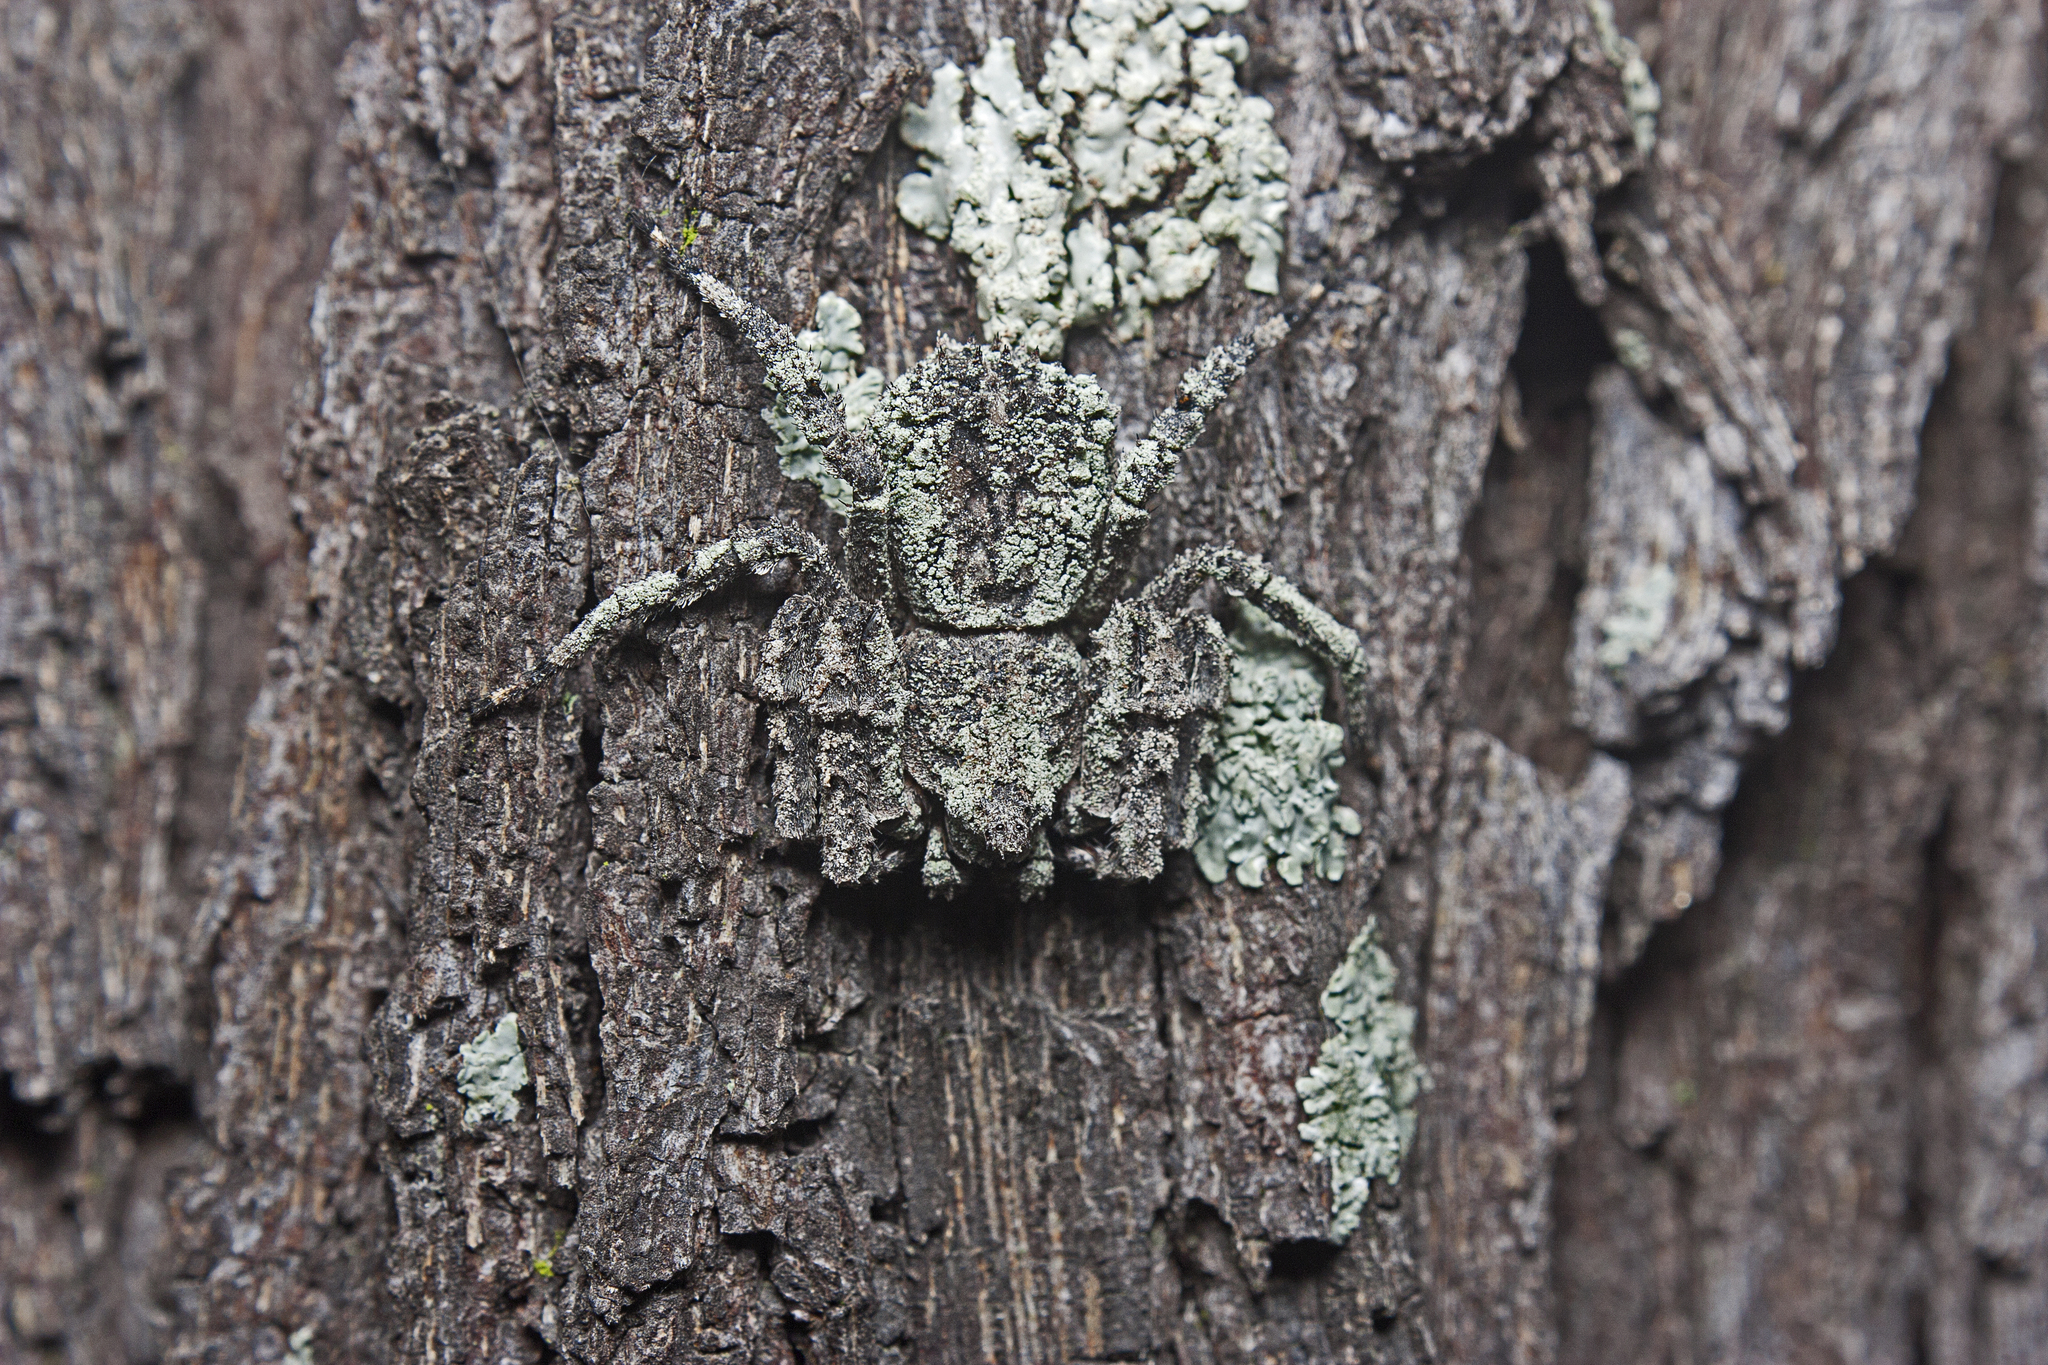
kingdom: Animalia
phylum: Arthropoda
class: Arachnida
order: Araneae
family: Thomisidae
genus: Stephanopis
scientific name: Stephanopis altifrons
